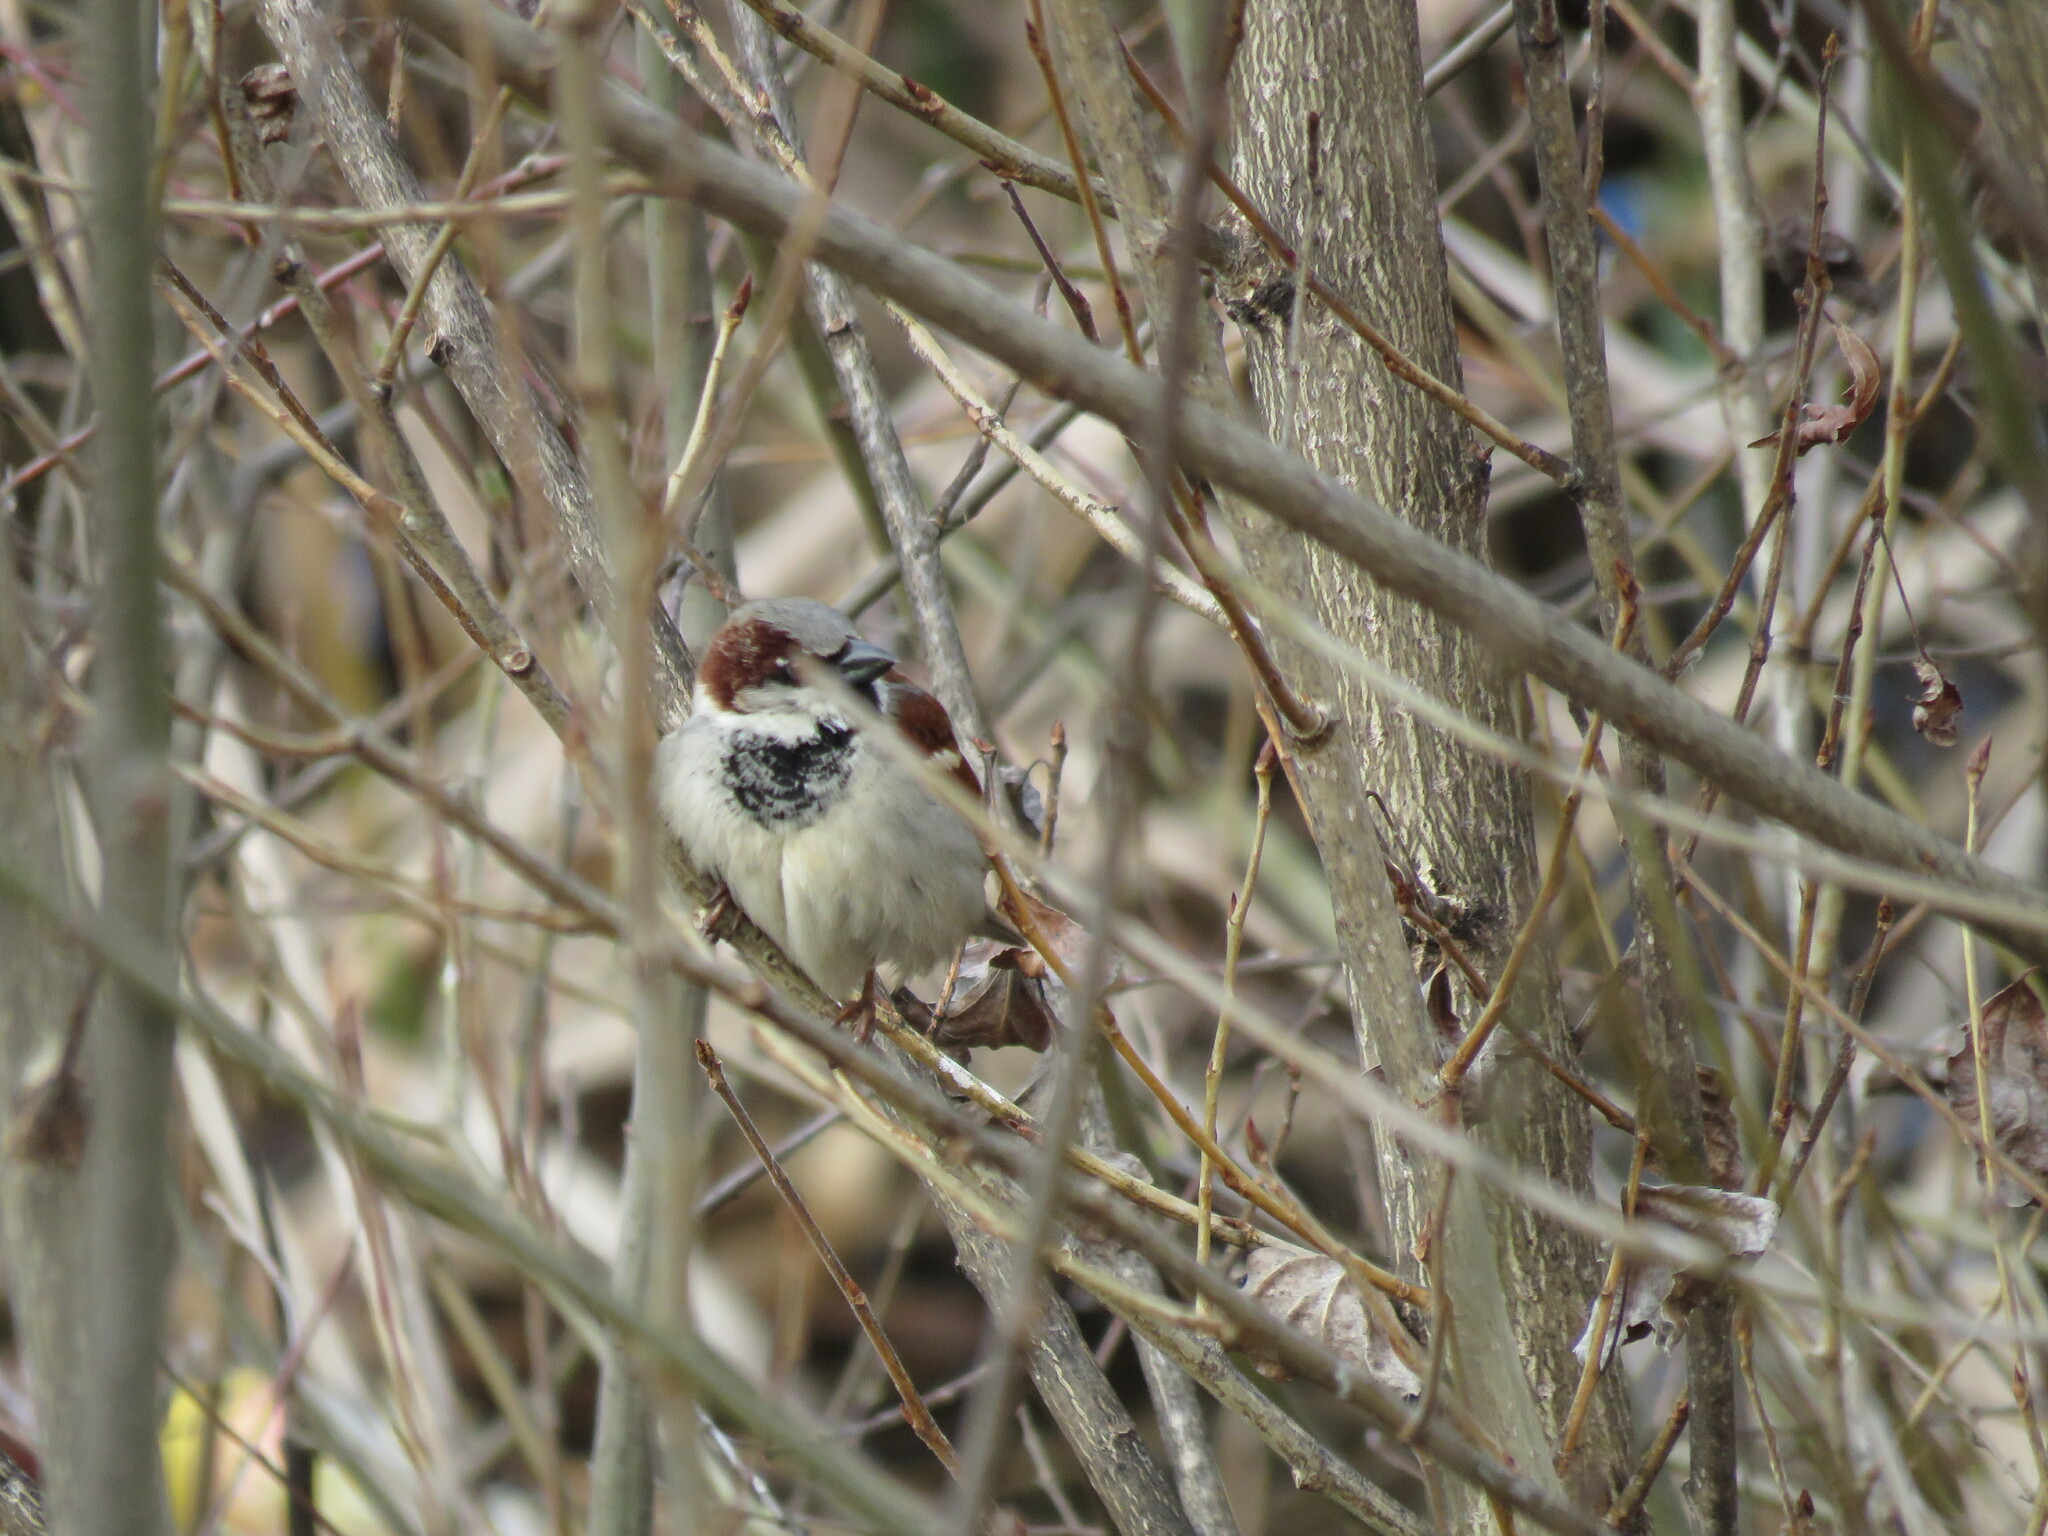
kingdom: Animalia
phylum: Chordata
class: Aves
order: Passeriformes
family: Passeridae
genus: Passer
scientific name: Passer domesticus
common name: House sparrow
